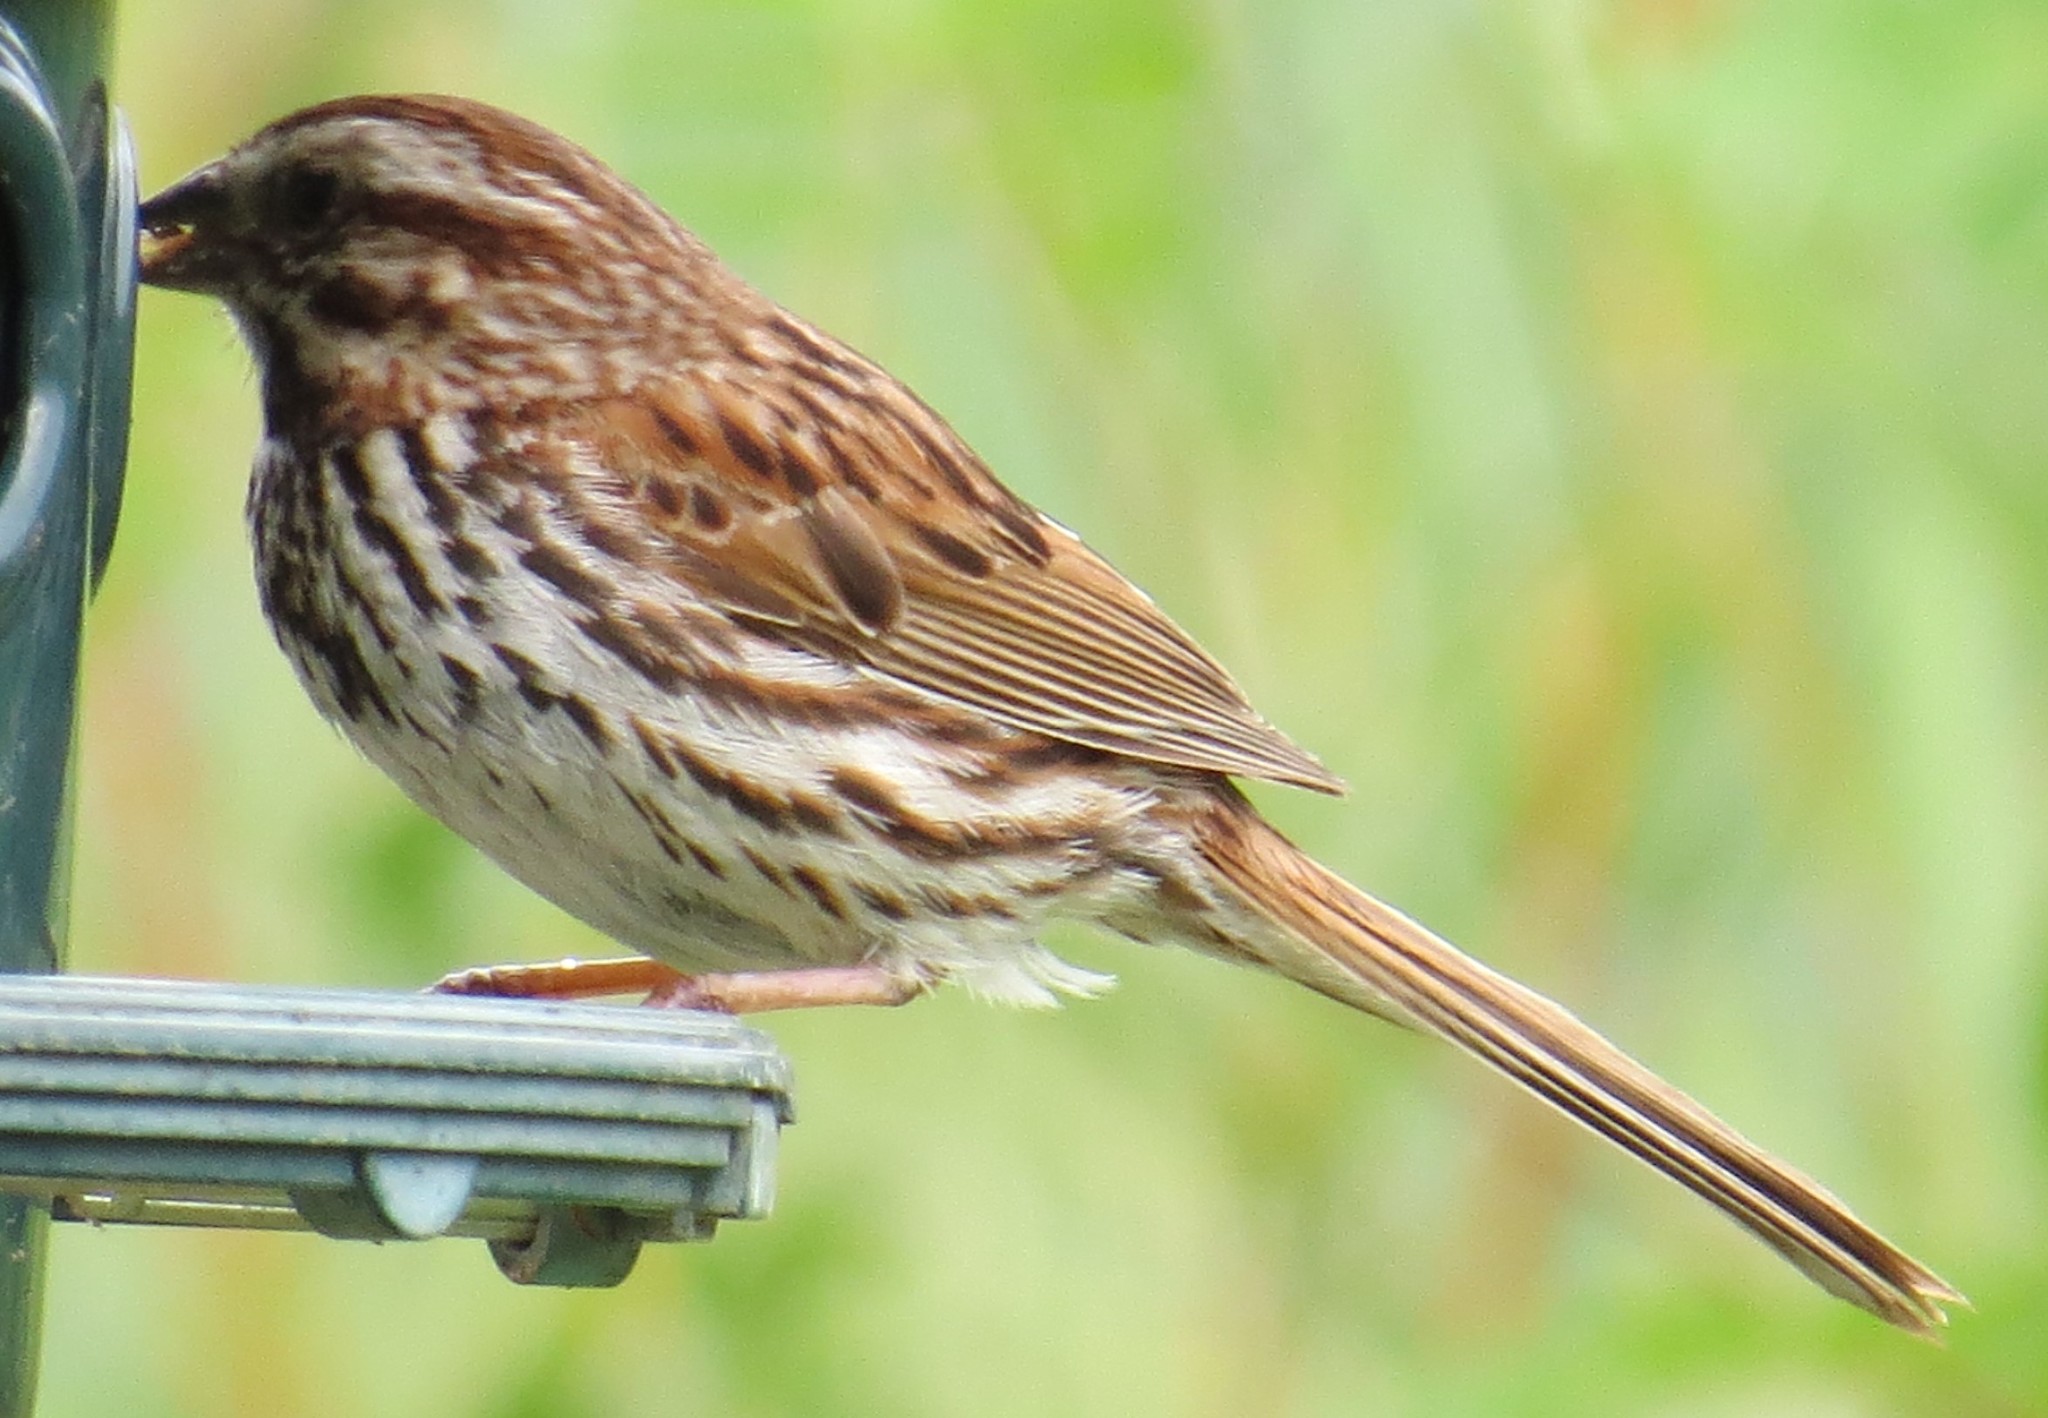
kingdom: Animalia
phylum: Chordata
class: Aves
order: Passeriformes
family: Passerellidae
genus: Melospiza
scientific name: Melospiza melodia
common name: Song sparrow
